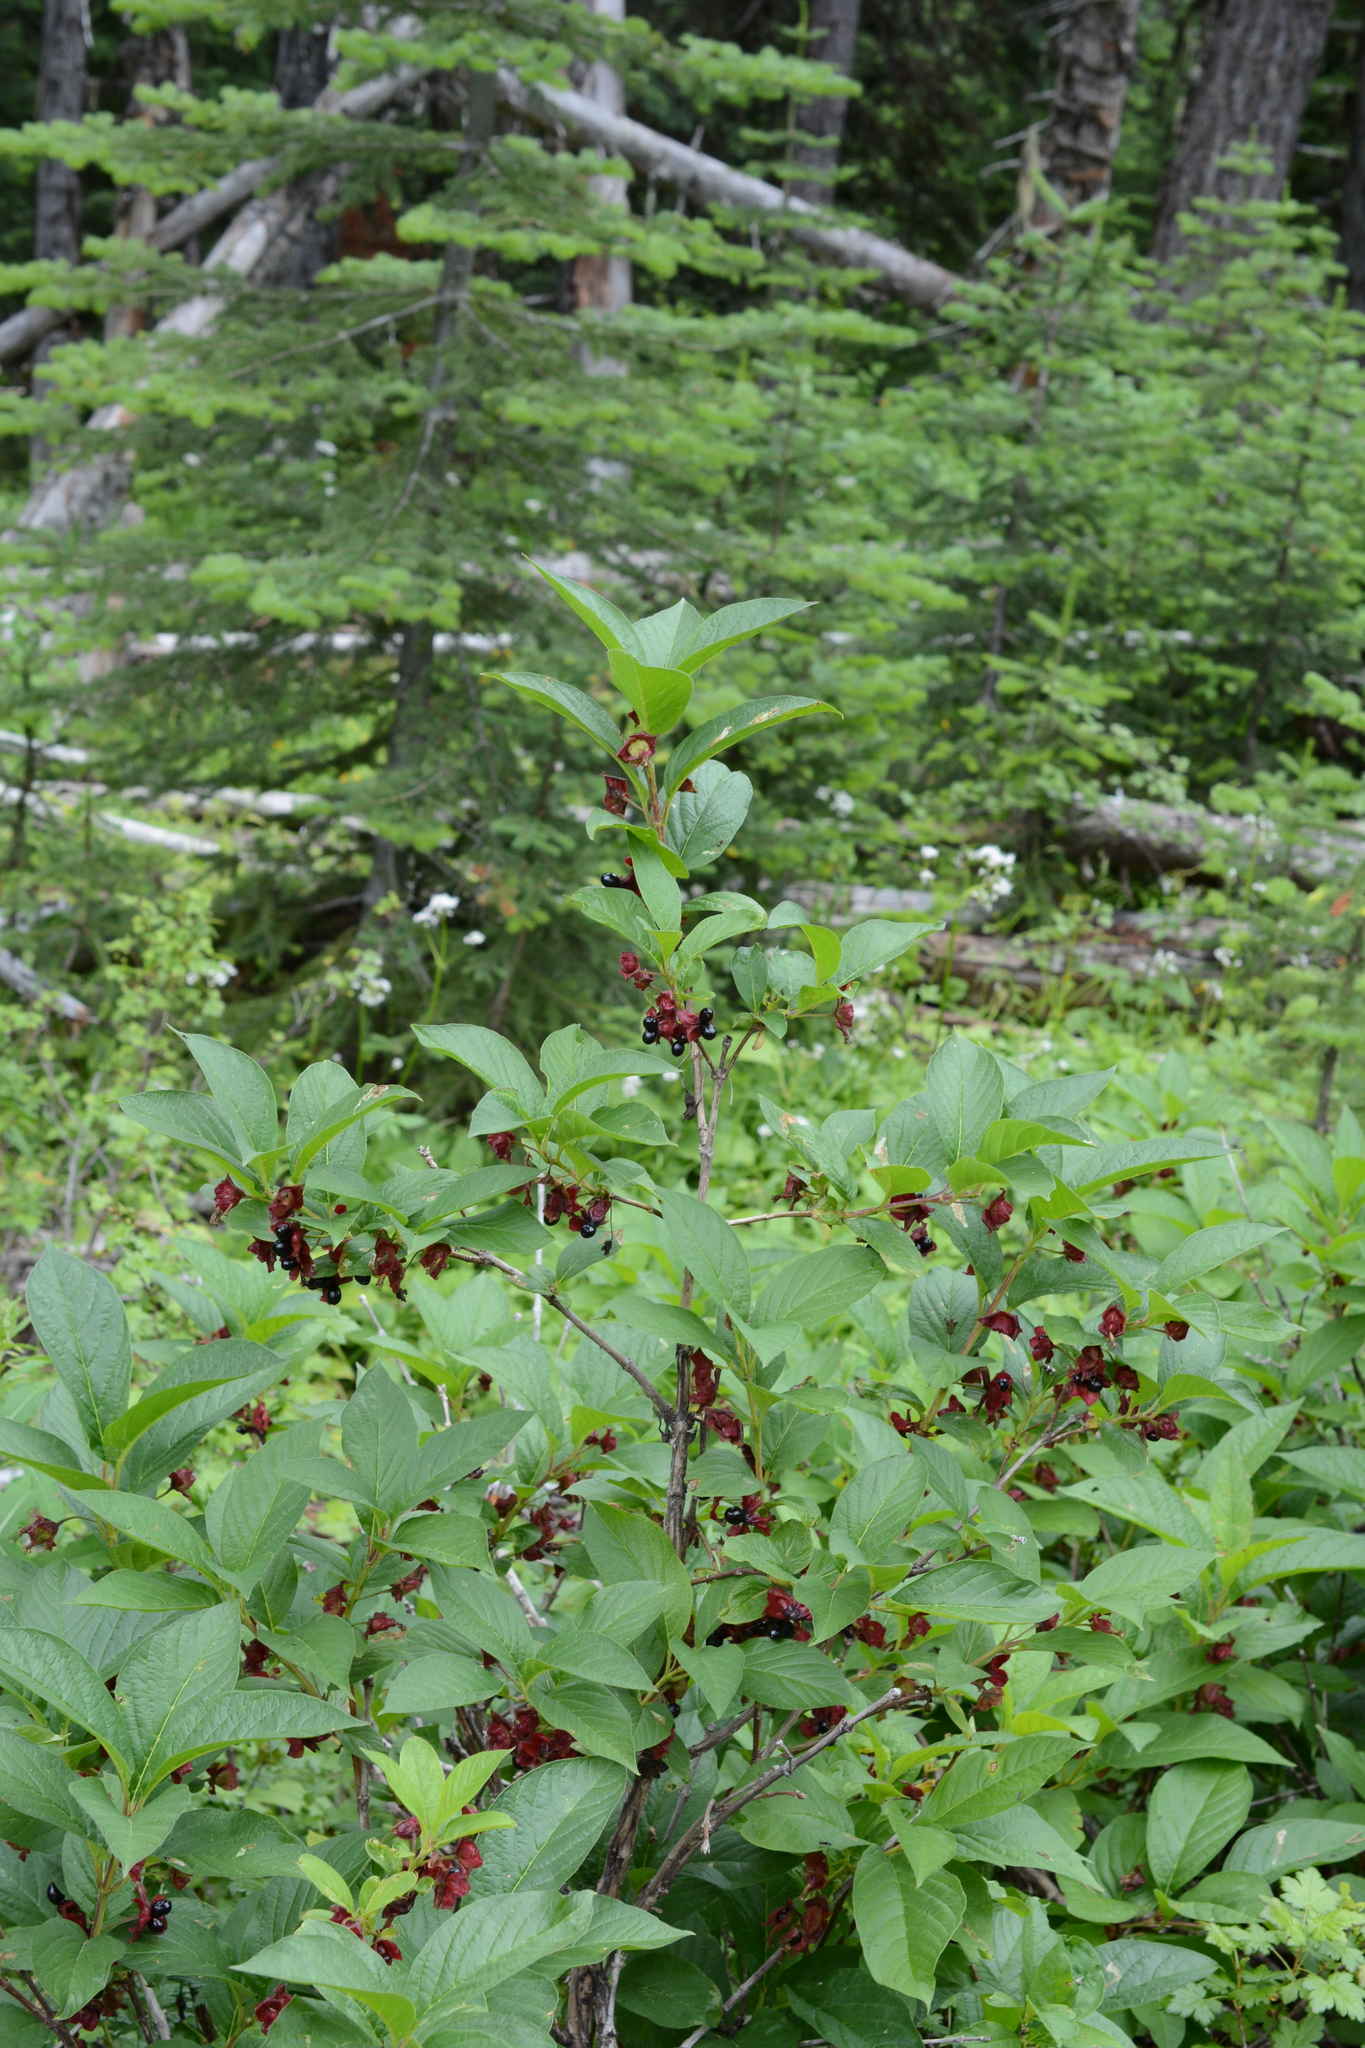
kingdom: Plantae
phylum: Tracheophyta
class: Magnoliopsida
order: Dipsacales
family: Caprifoliaceae
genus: Lonicera
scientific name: Lonicera involucrata
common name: Californian honeysuckle
